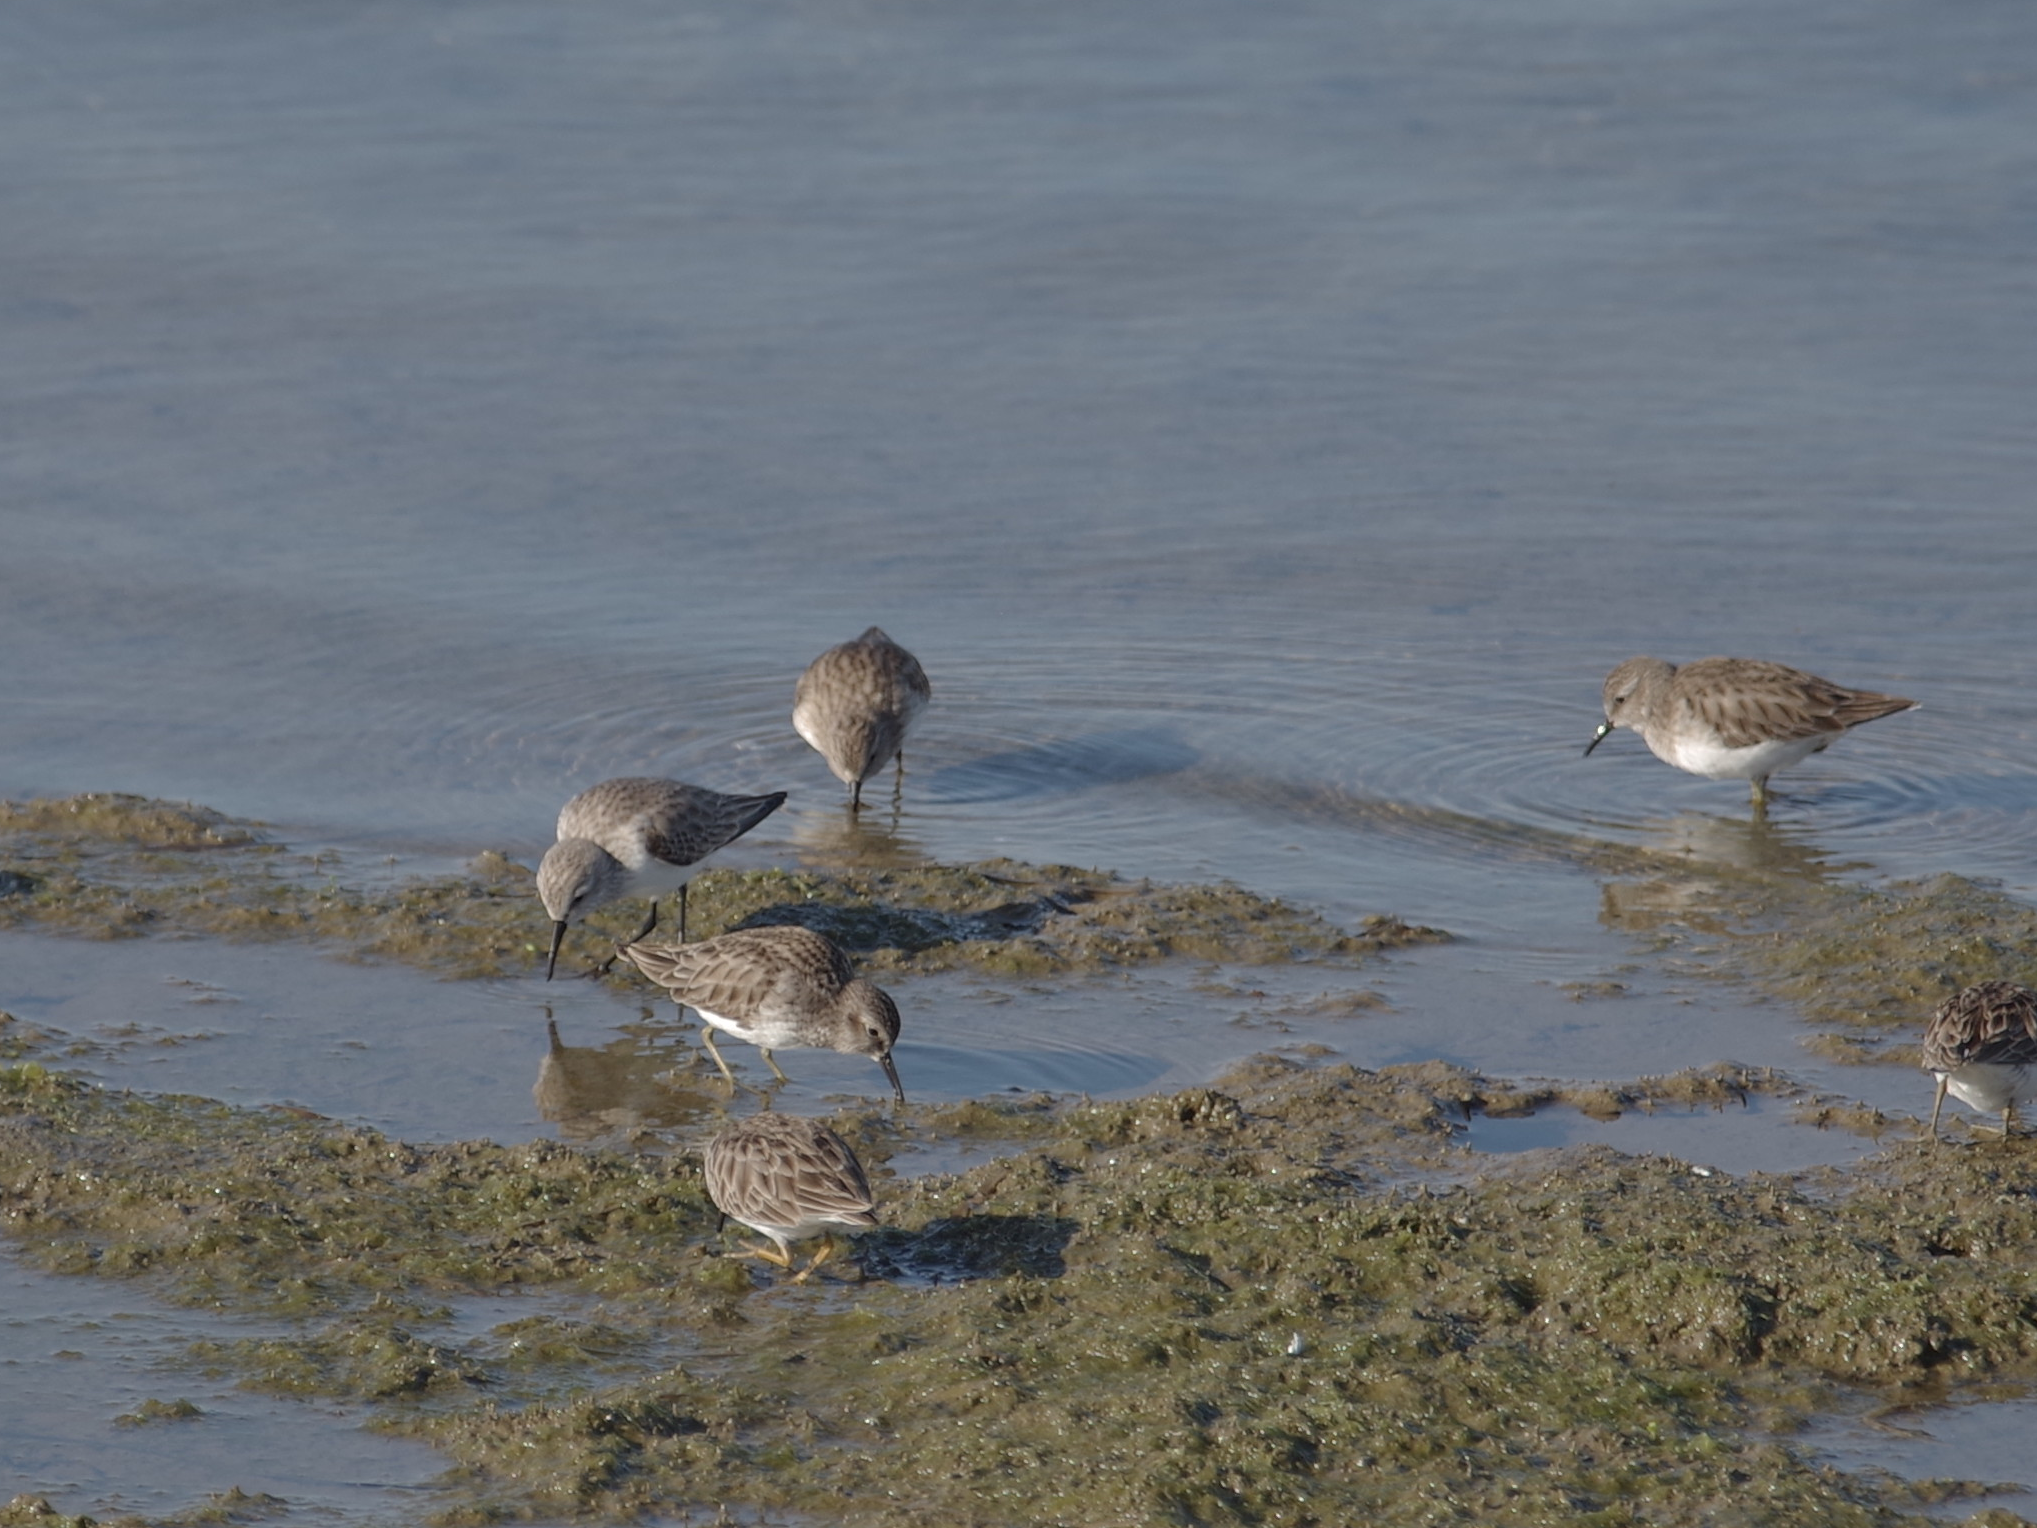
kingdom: Animalia
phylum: Chordata
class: Aves
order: Charadriiformes
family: Scolopacidae
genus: Calidris
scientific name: Calidris minutilla
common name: Least sandpiper
